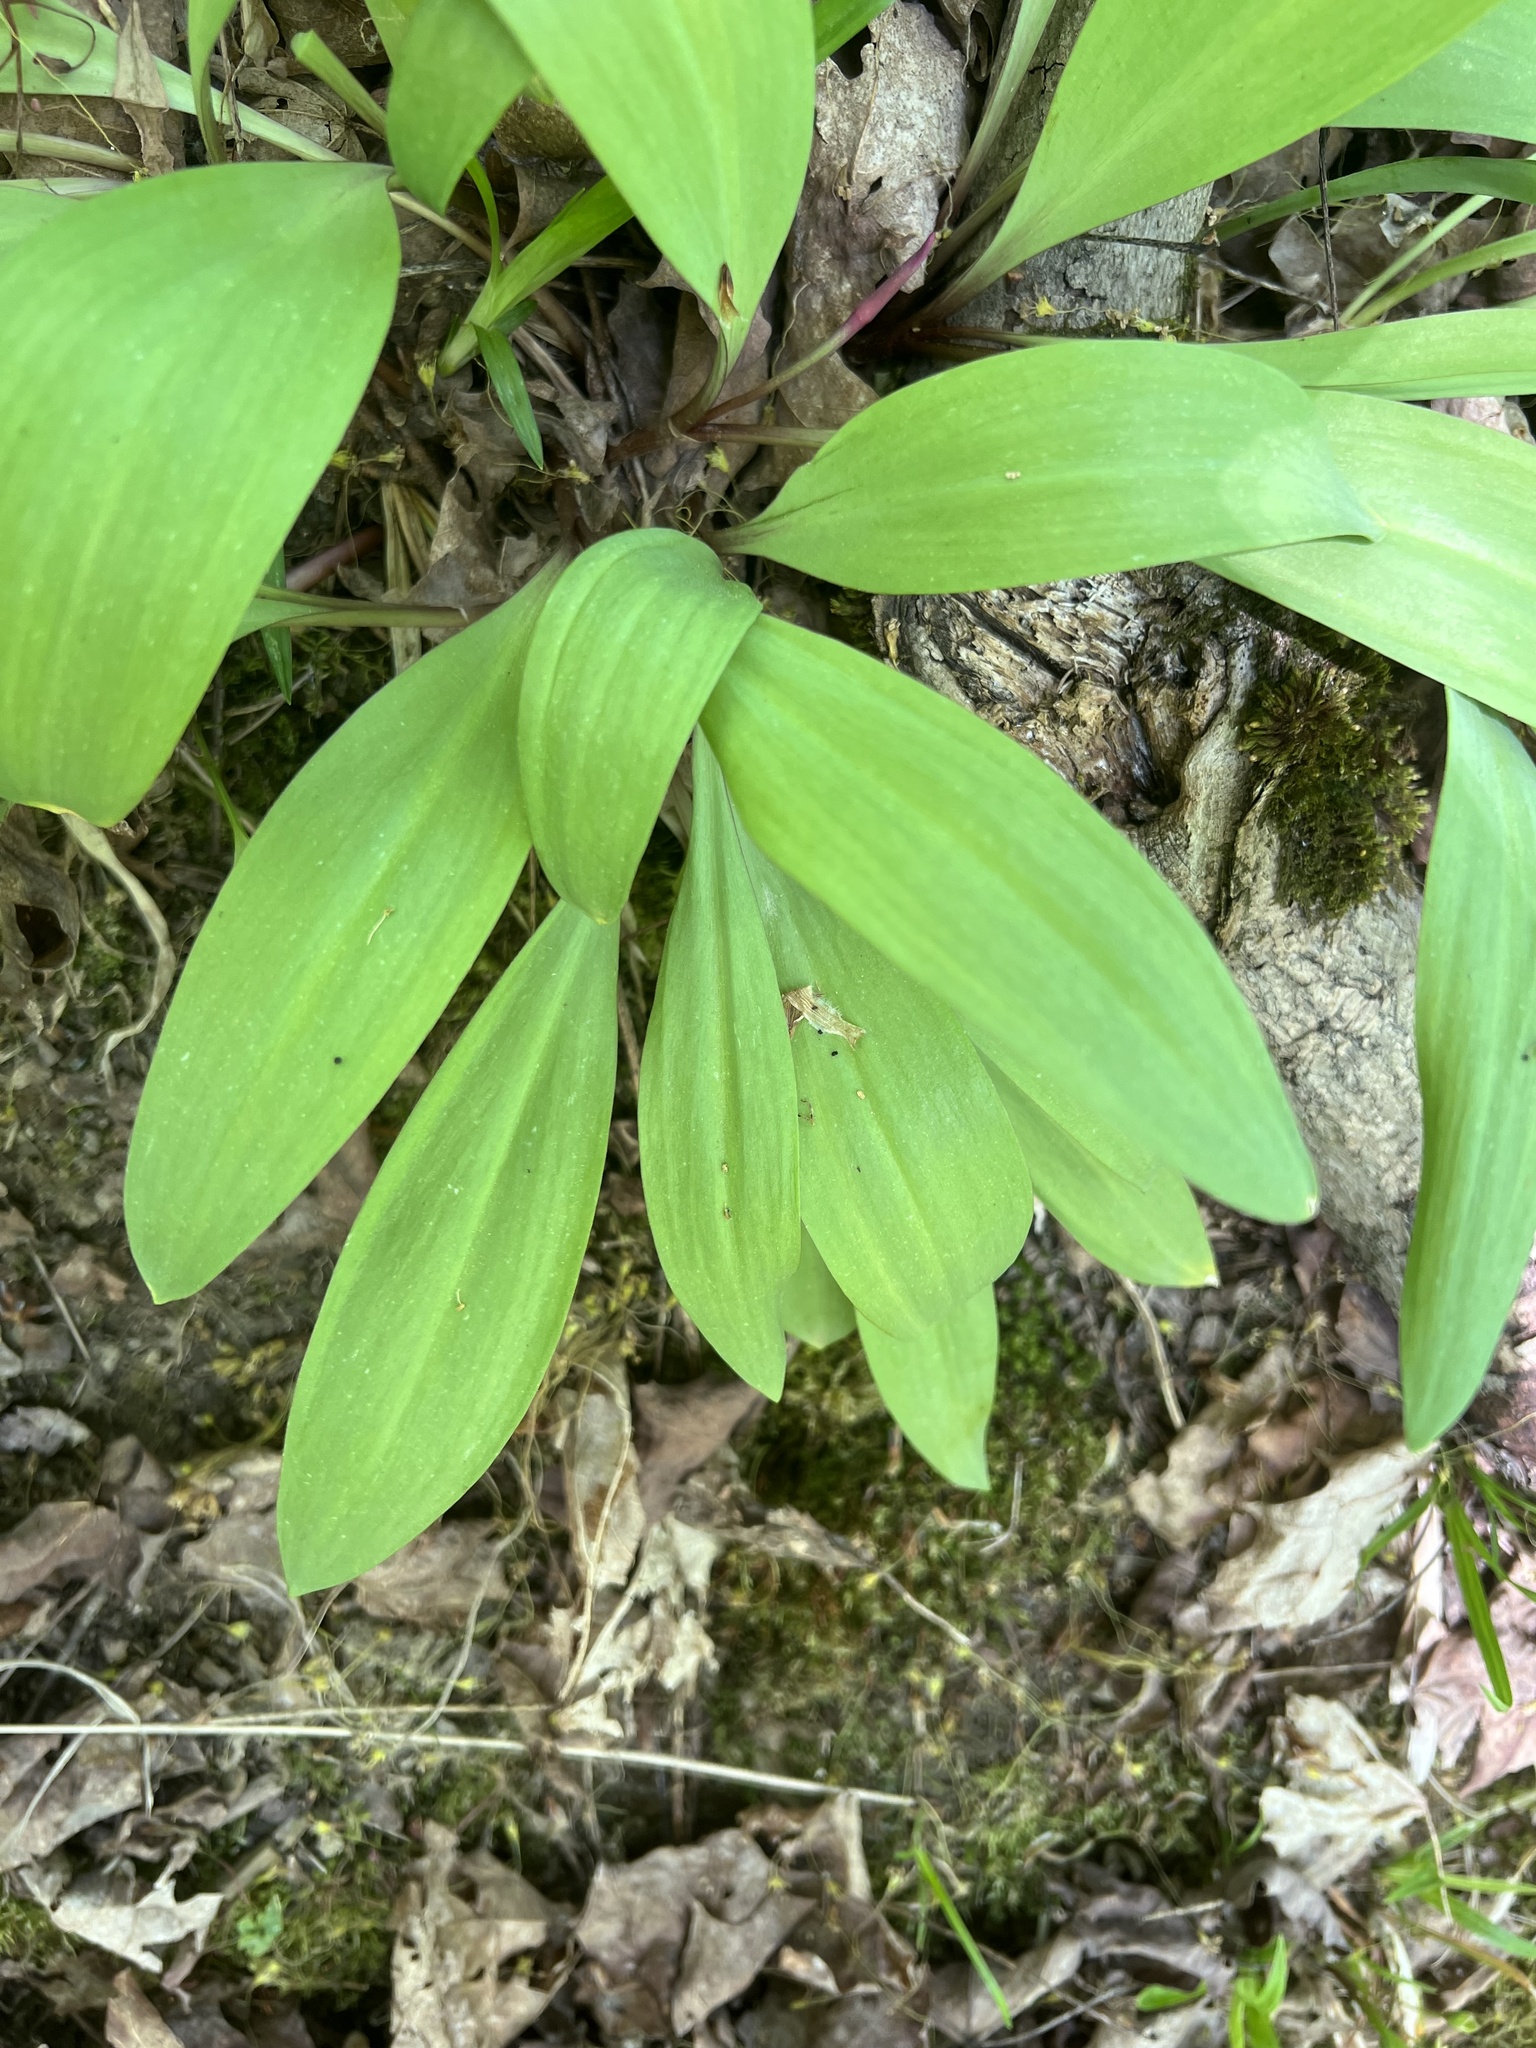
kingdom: Plantae
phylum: Tracheophyta
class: Liliopsida
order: Asparagales
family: Amaryllidaceae
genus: Allium
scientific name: Allium tricoccum
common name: Ramp
